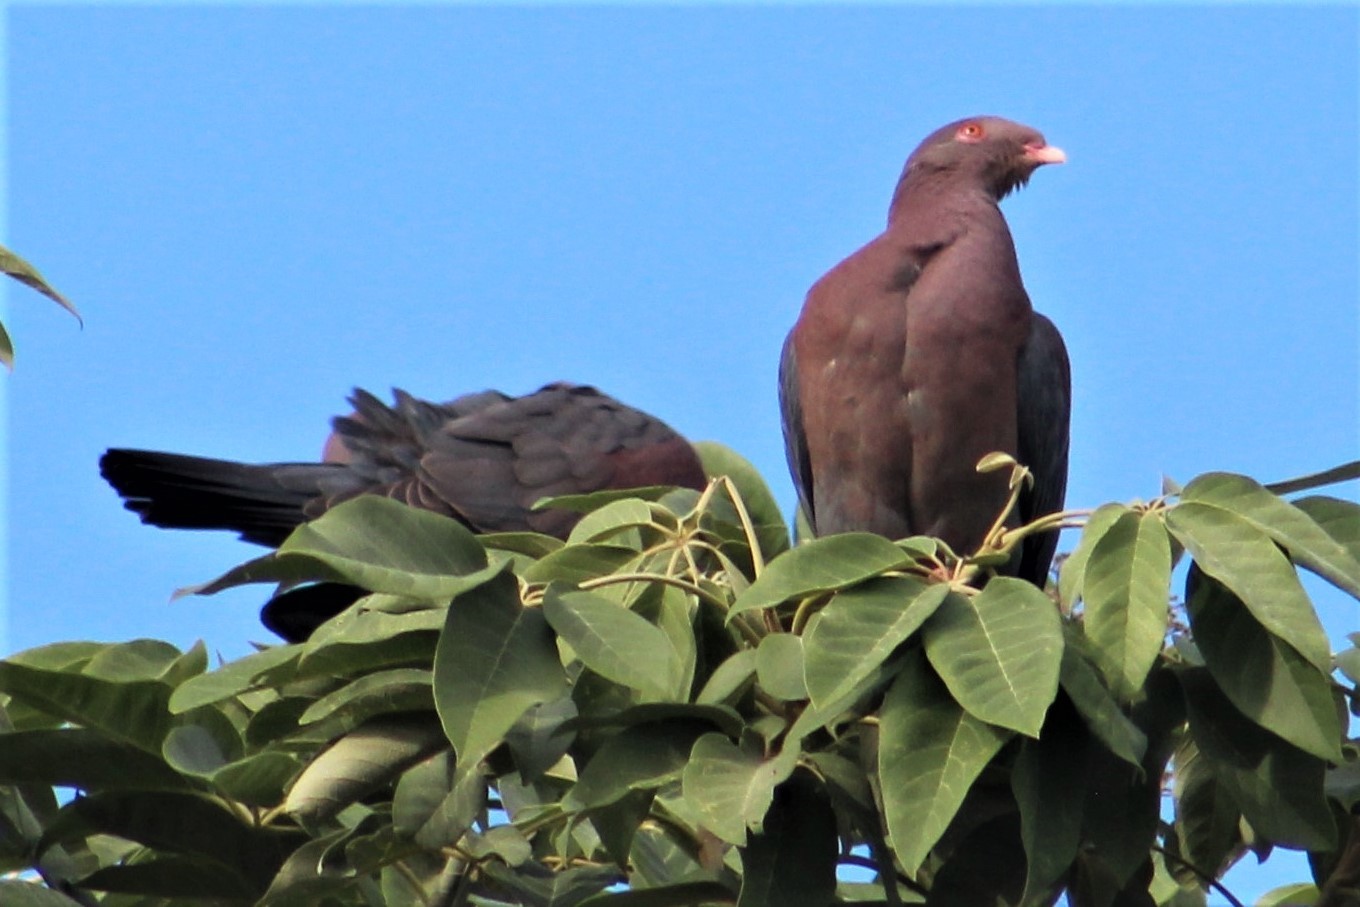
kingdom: Animalia
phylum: Chordata
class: Aves
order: Columbiformes
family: Columbidae
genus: Patagioenas
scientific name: Patagioenas flavirostris
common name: Red-billed pigeon
